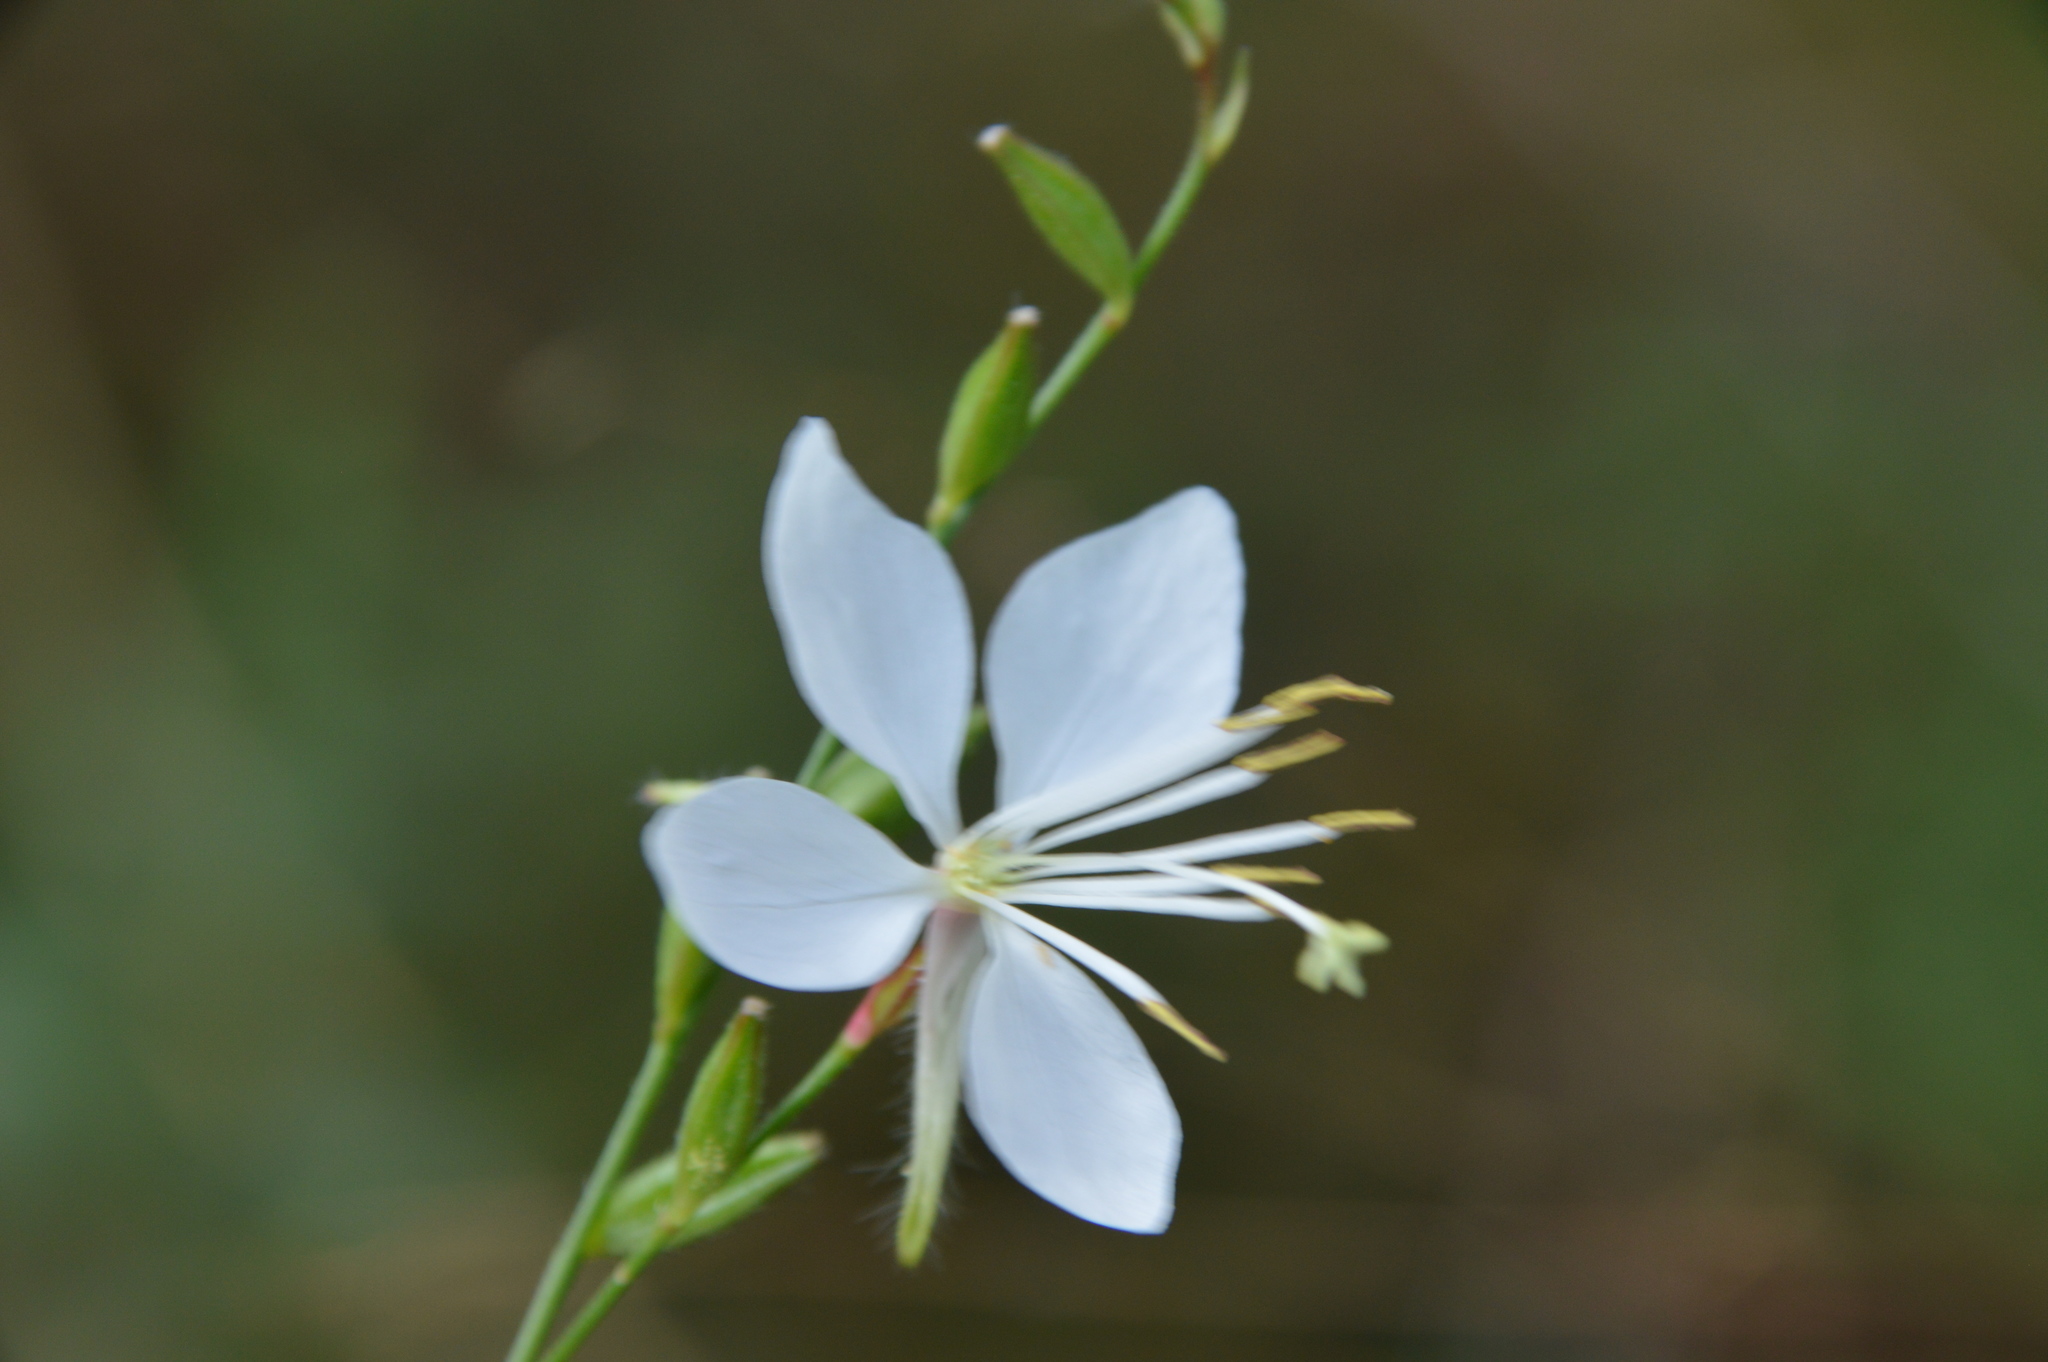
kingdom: Plantae
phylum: Tracheophyta
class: Magnoliopsida
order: Myrtales
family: Onagraceae
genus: Oenothera
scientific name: Oenothera lindheimeri
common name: Lindheimer's beeblossom
